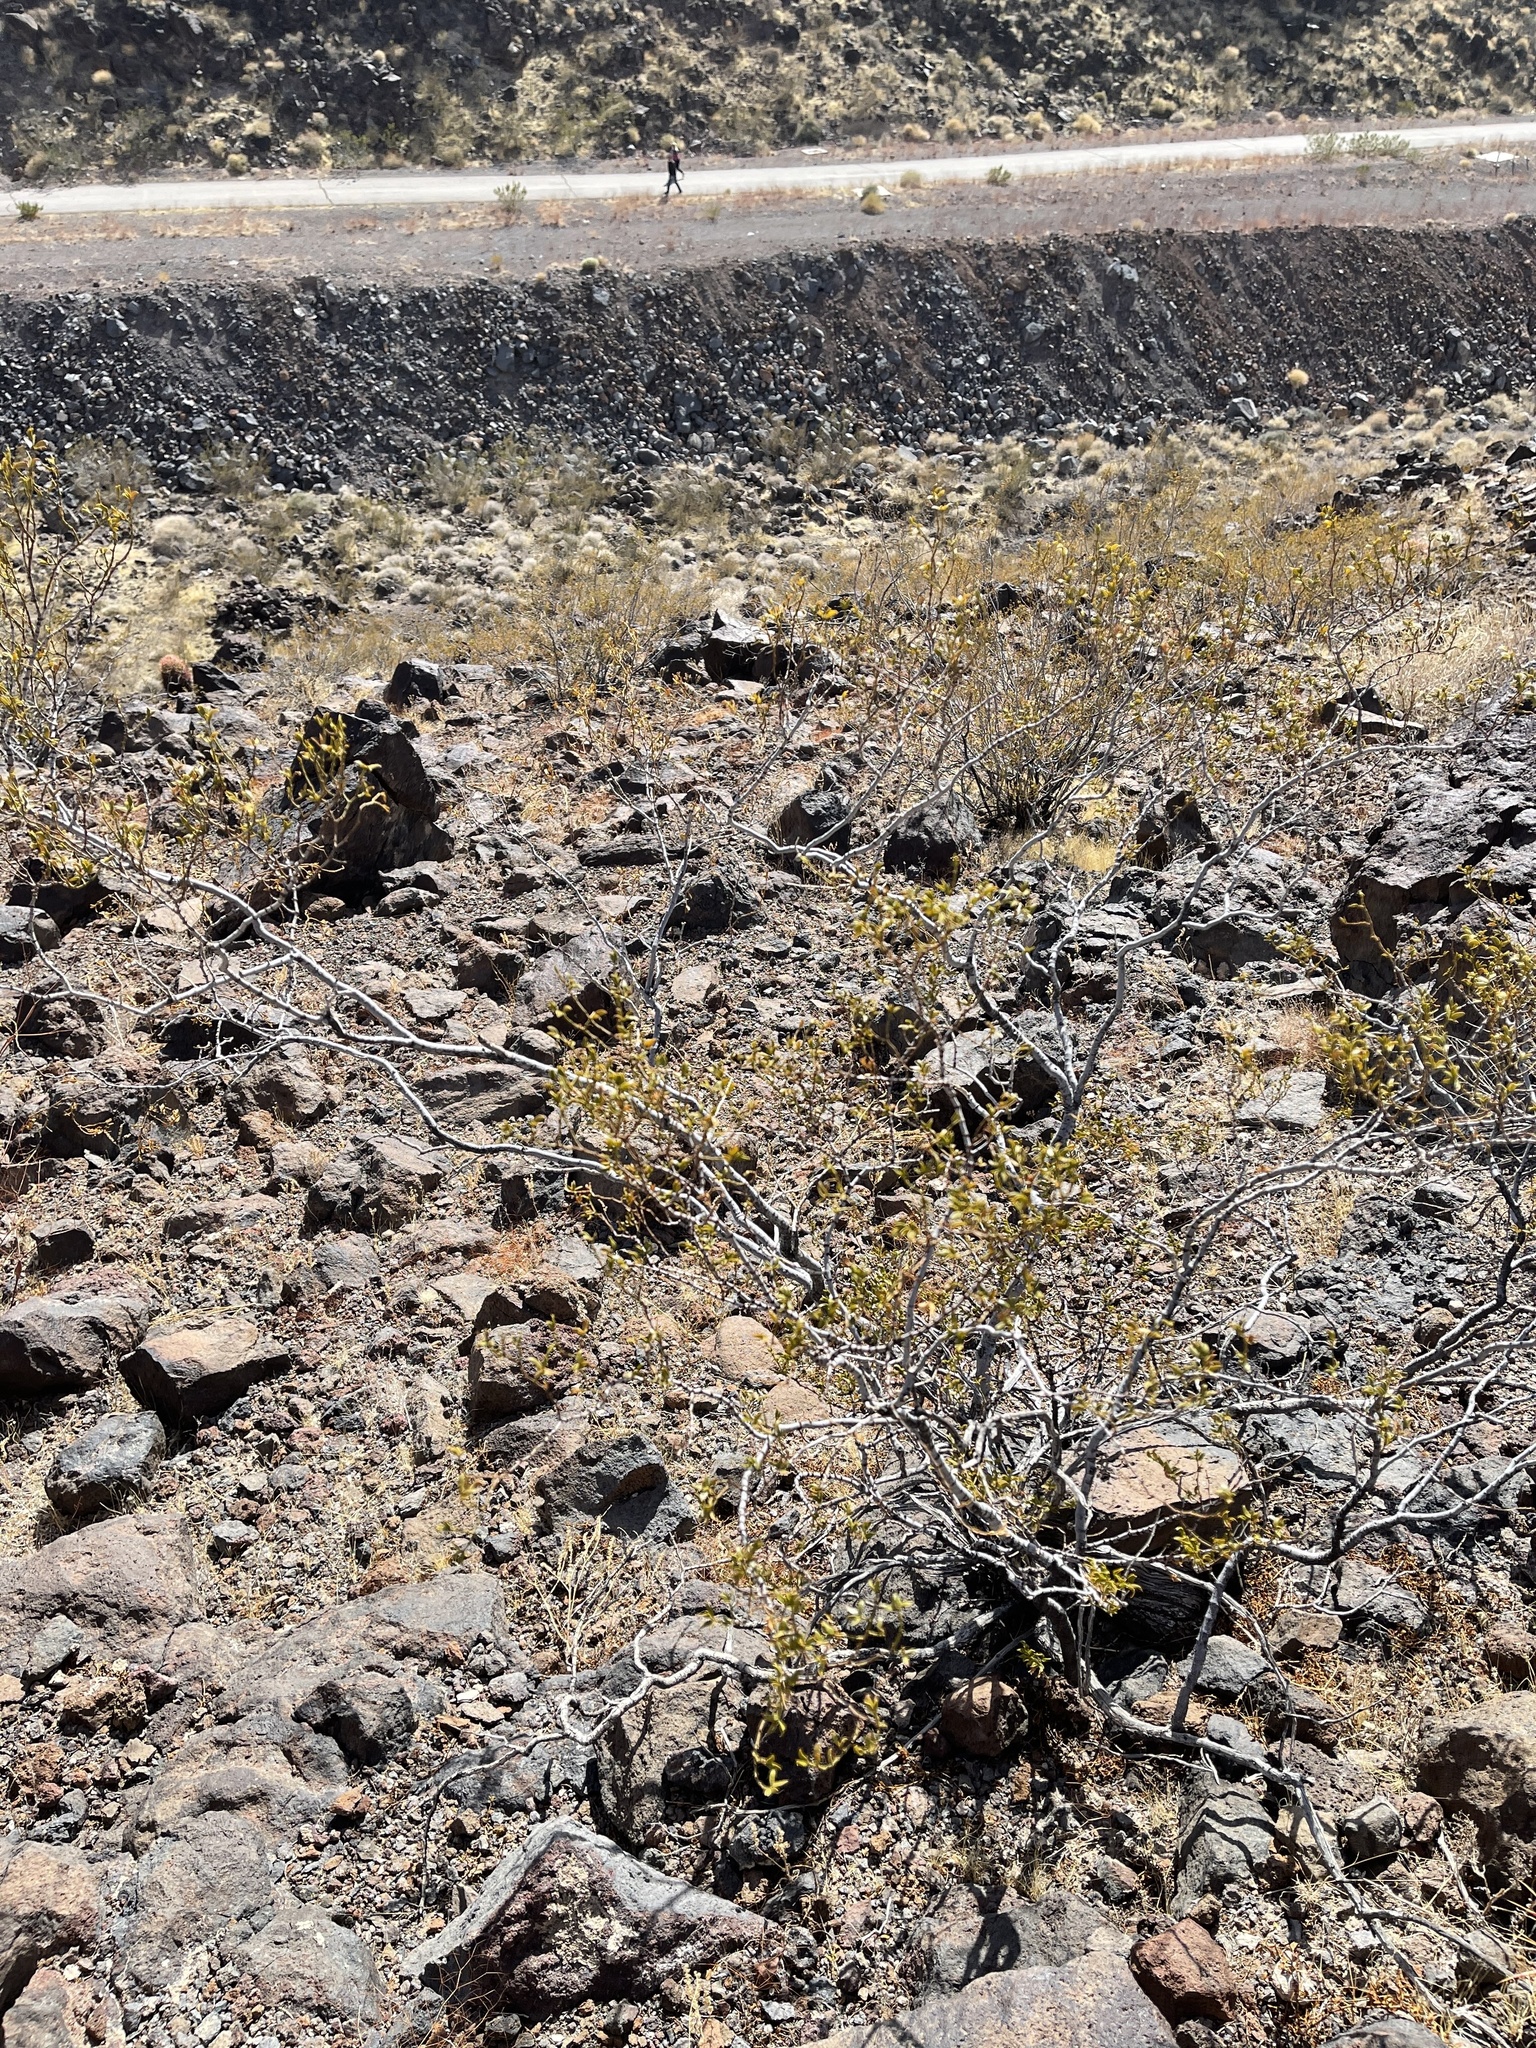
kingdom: Plantae
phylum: Tracheophyta
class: Magnoliopsida
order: Zygophyllales
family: Zygophyllaceae
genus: Larrea
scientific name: Larrea tridentata
